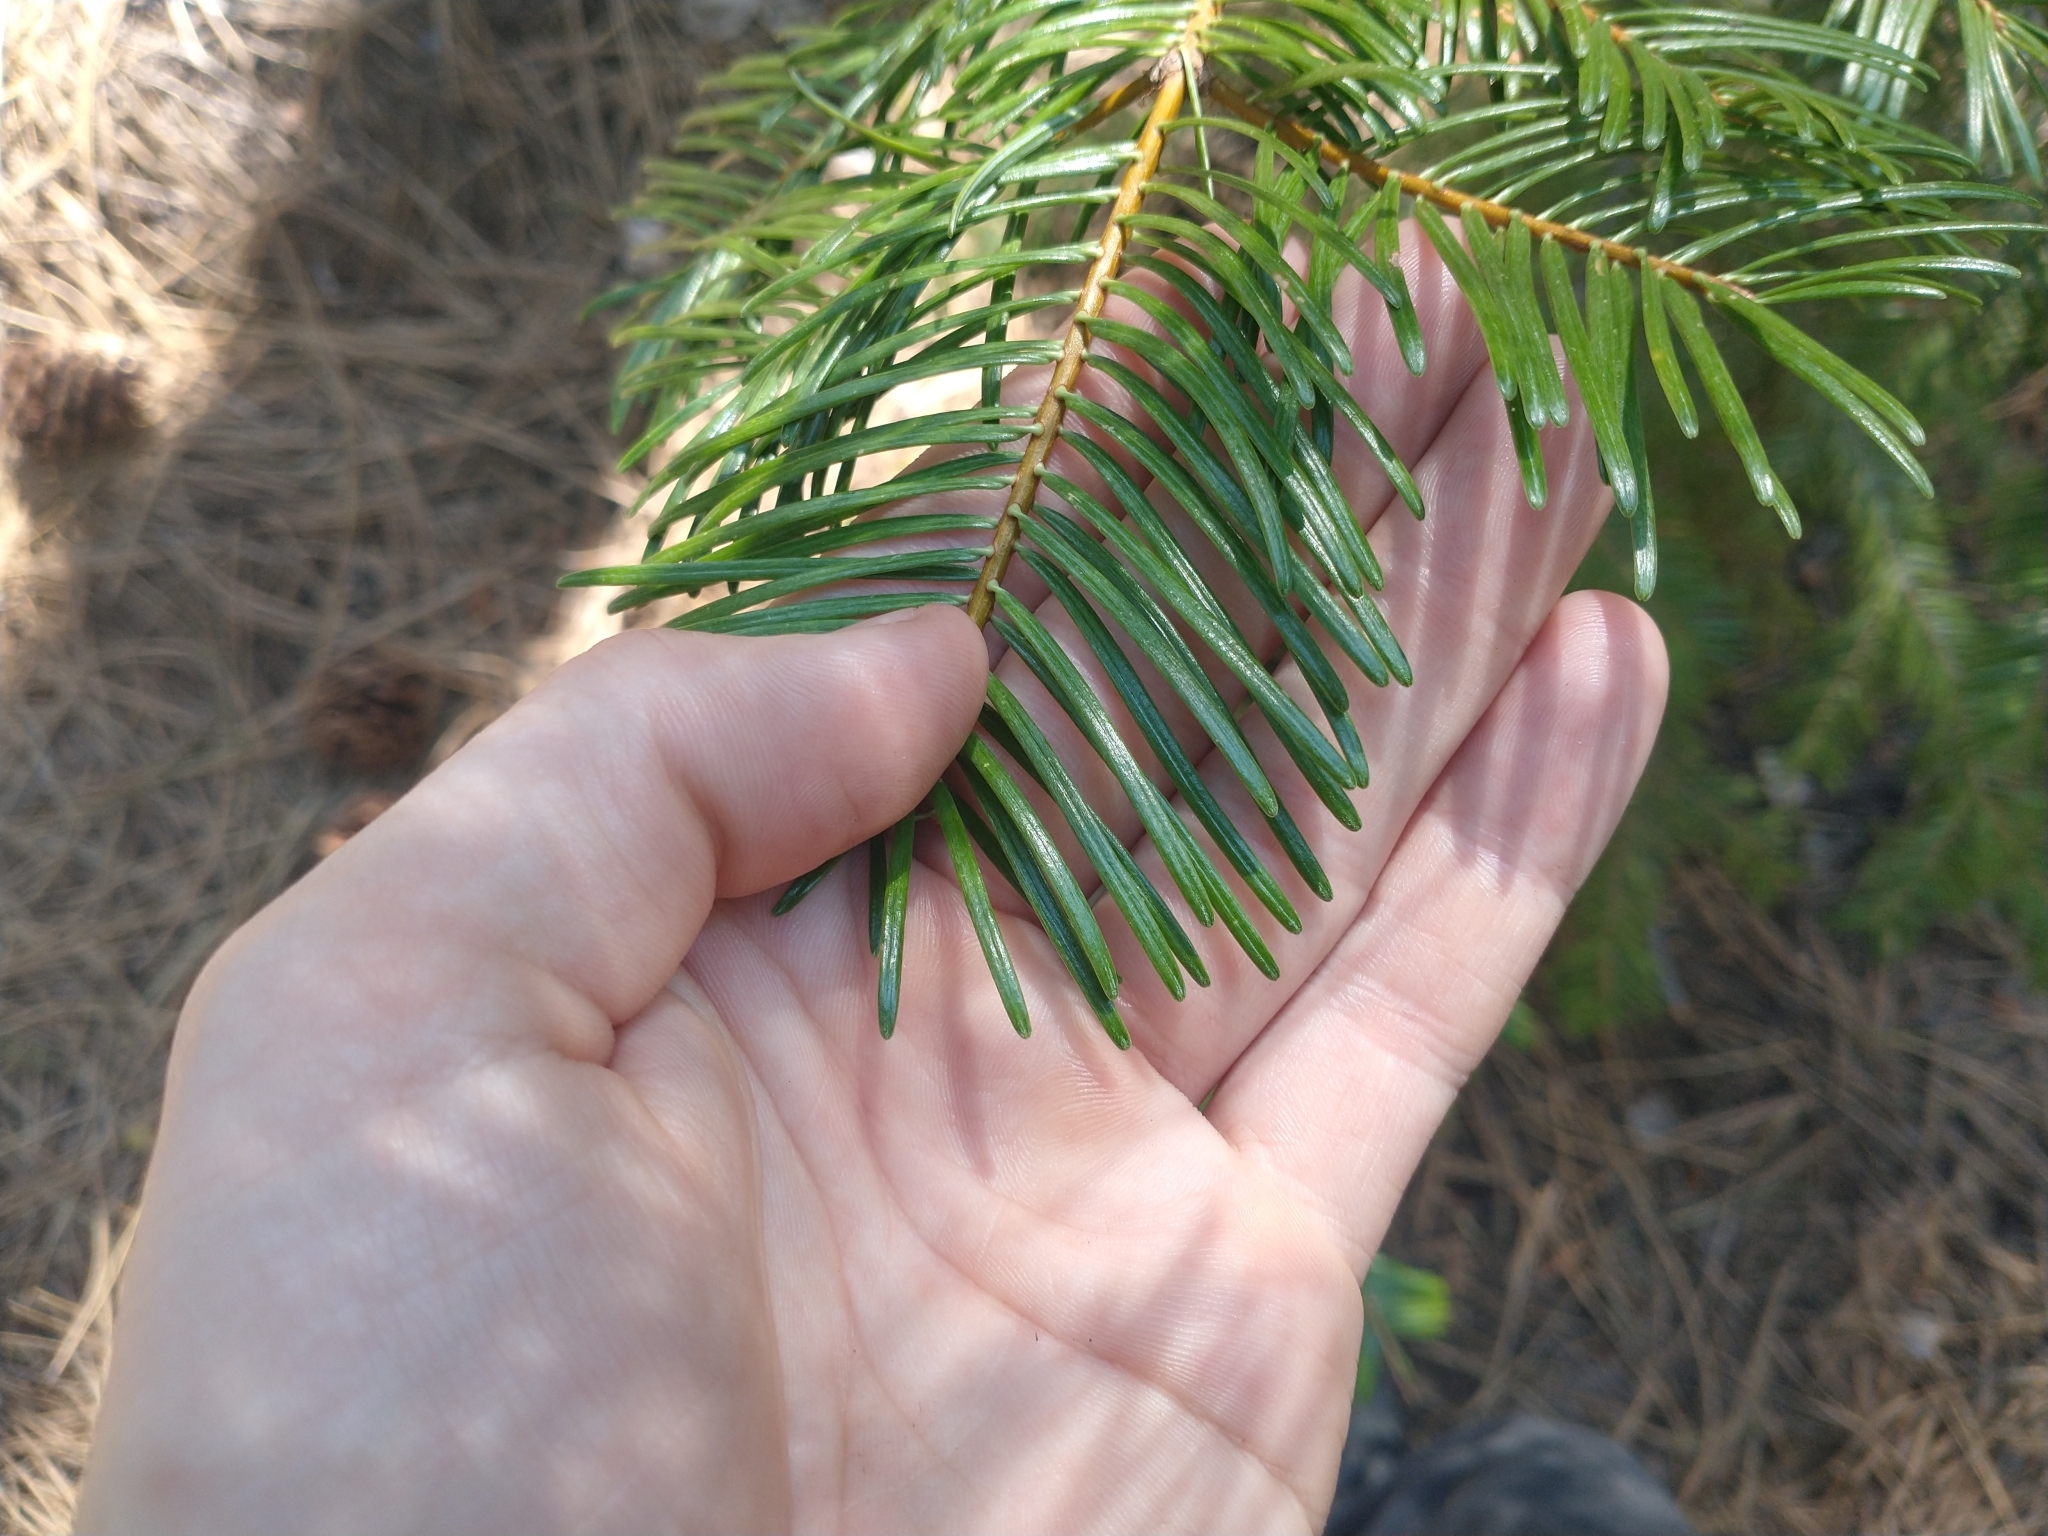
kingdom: Plantae
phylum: Tracheophyta
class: Pinopsida
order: Pinales
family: Pinaceae
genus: Abies
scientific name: Abies concolor
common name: Colorado fir
